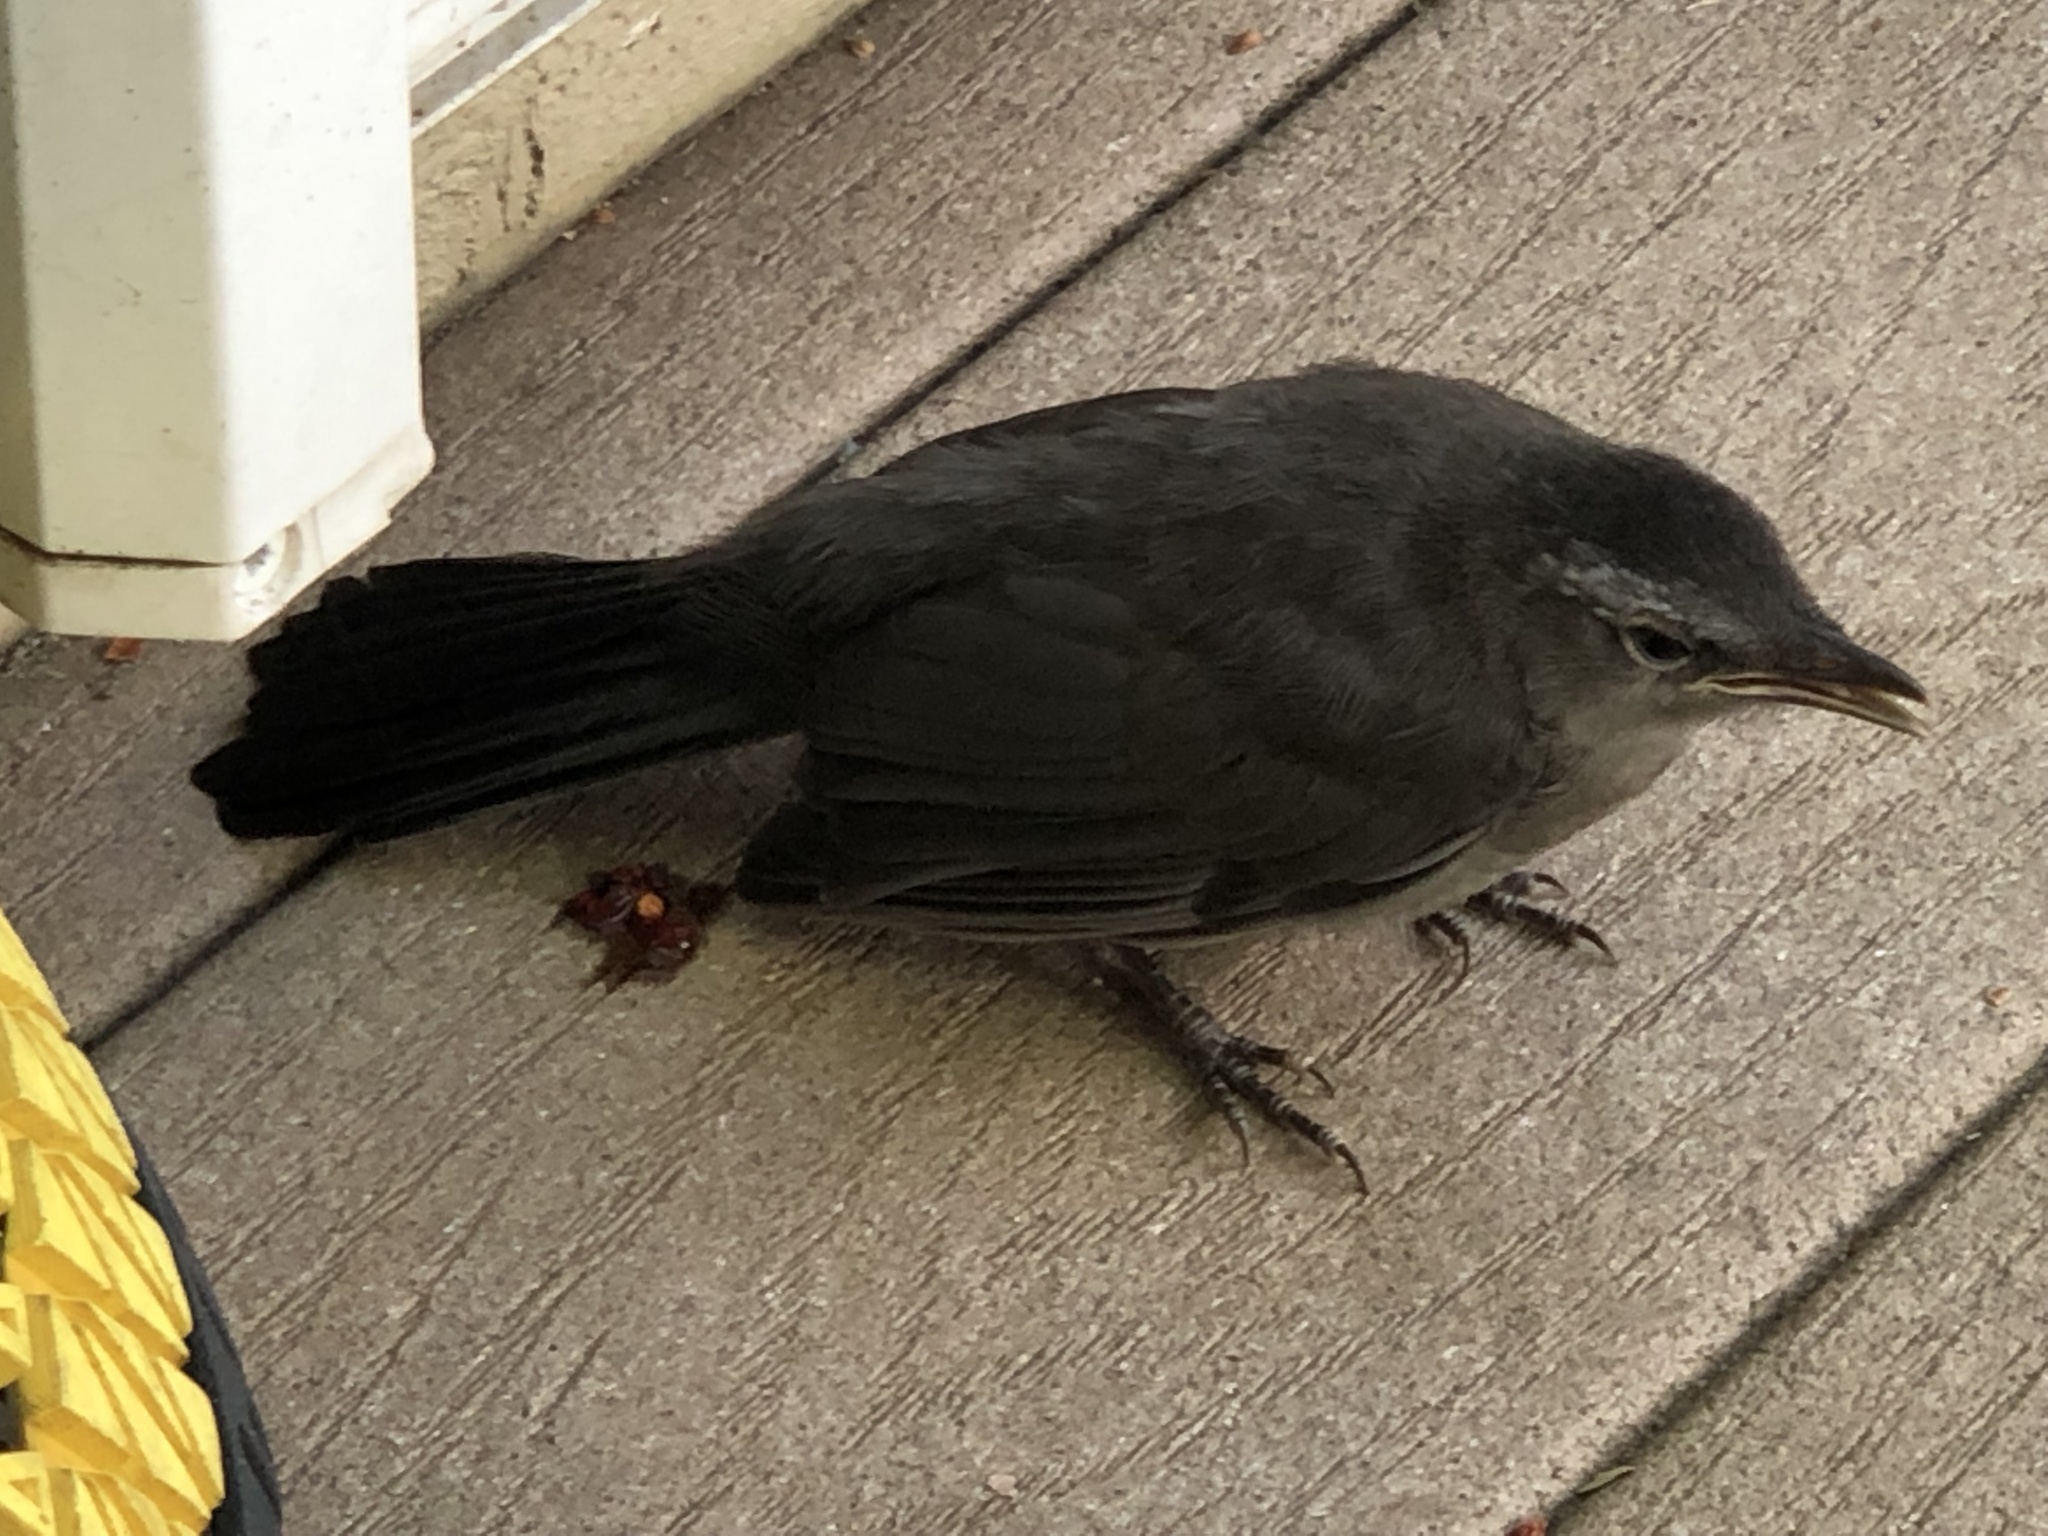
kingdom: Animalia
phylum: Chordata
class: Aves
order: Passeriformes
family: Mimidae
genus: Dumetella
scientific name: Dumetella carolinensis
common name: Gray catbird
